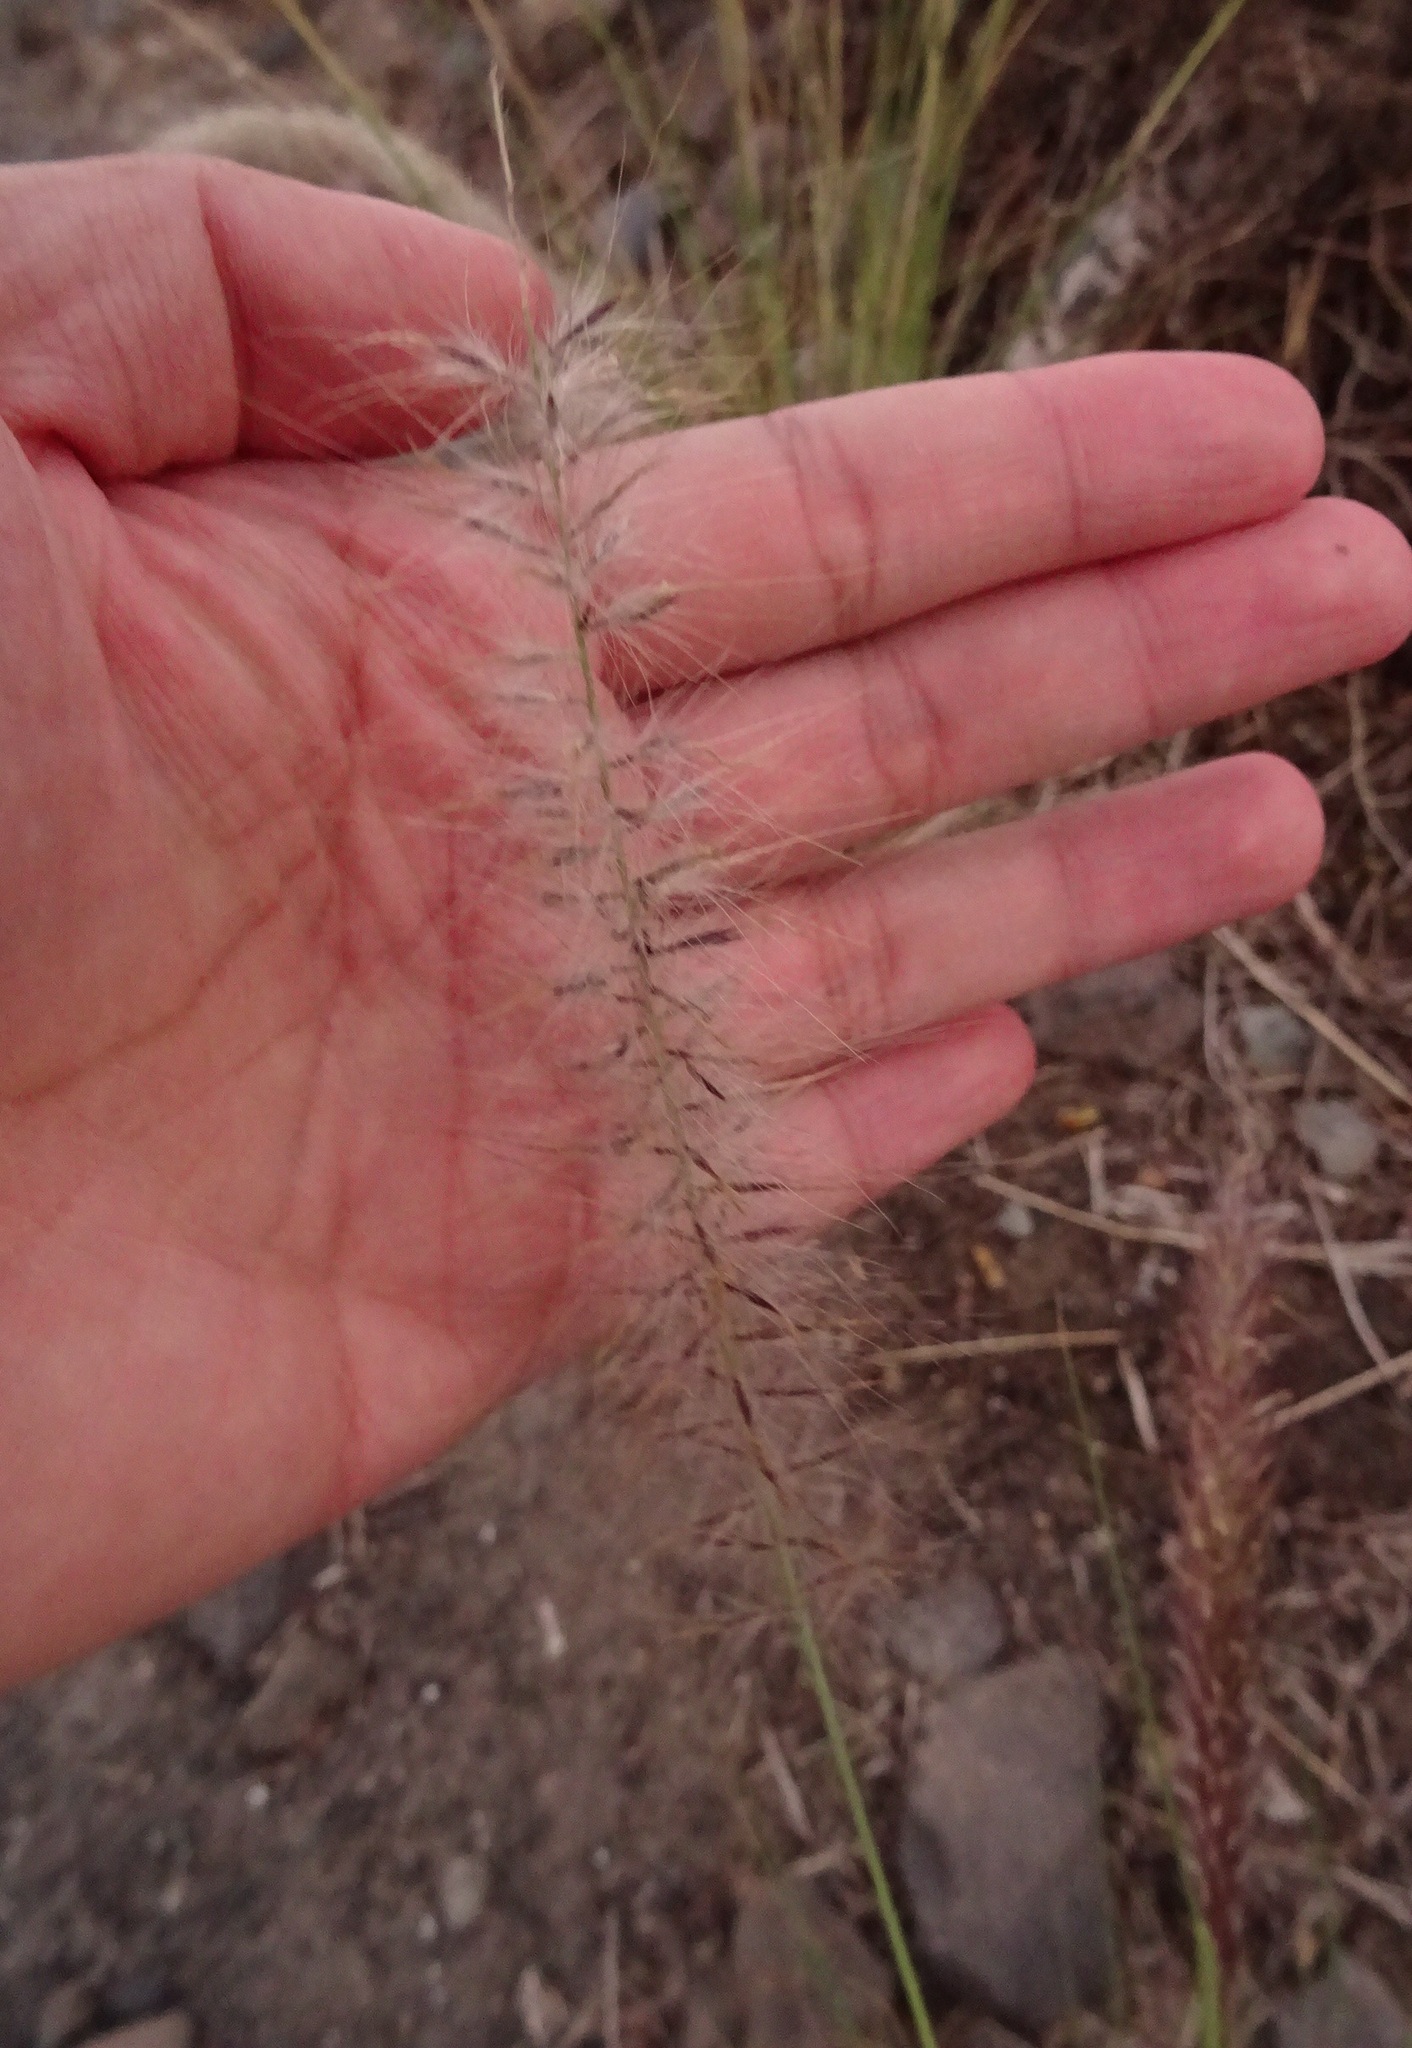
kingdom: Plantae
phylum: Tracheophyta
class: Liliopsida
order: Poales
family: Poaceae
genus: Cenchrus
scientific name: Cenchrus setaceus
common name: Crimson fountaingrass
